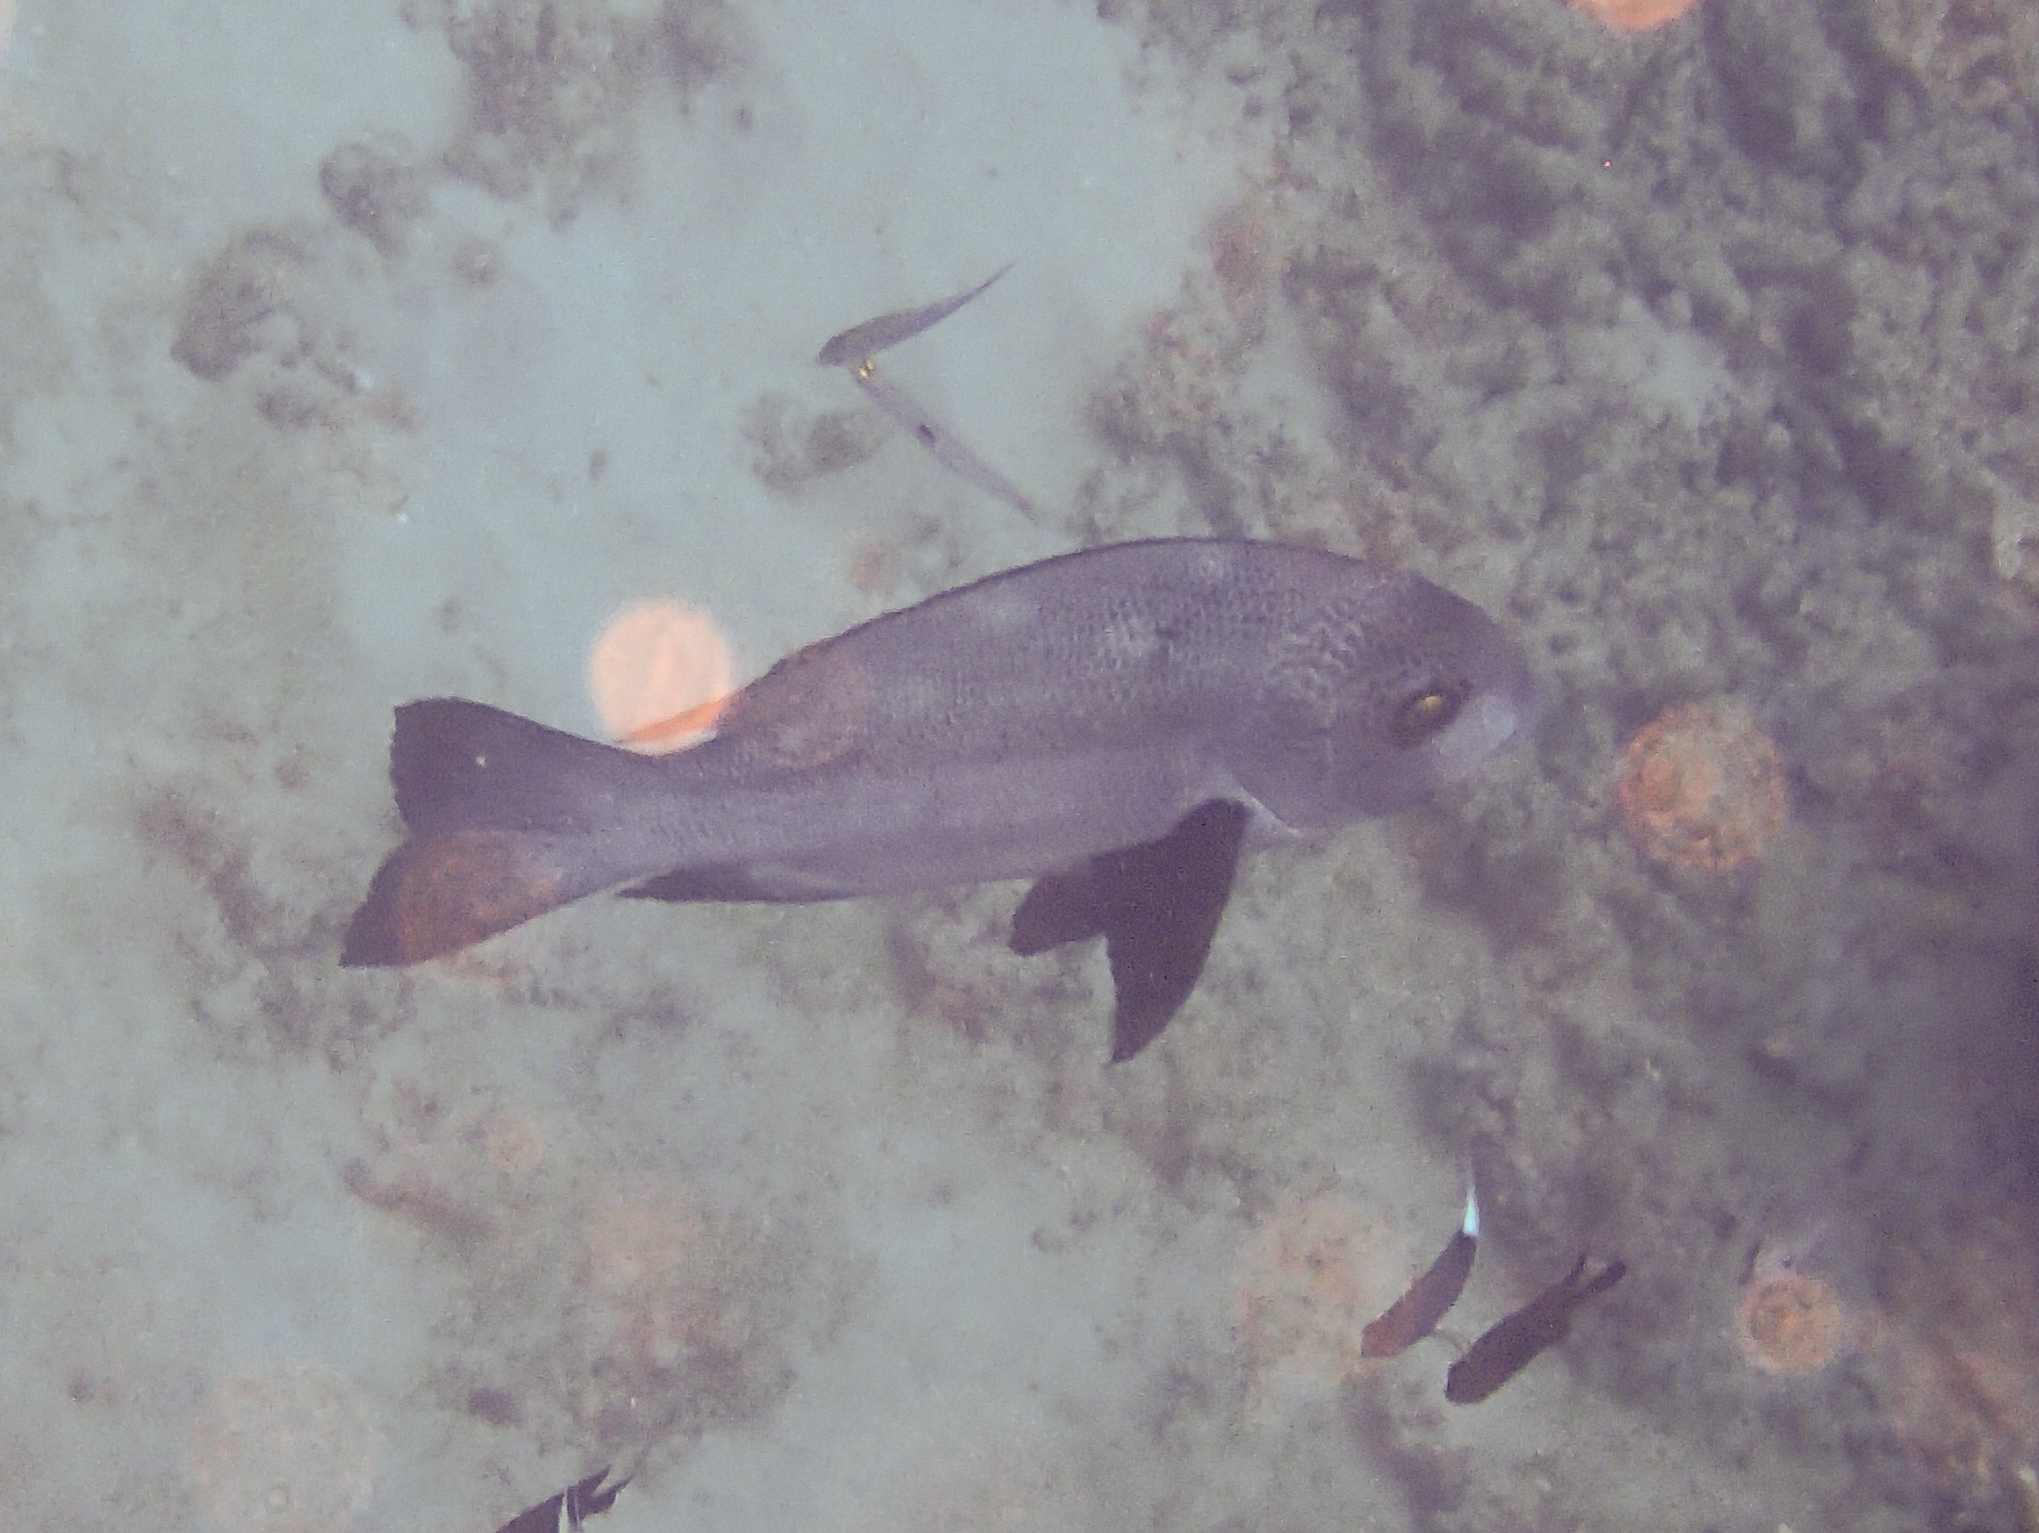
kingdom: Animalia
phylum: Chordata
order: Perciformes
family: Lutjanidae
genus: Macolor
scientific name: Macolor macularis
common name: Midnight snapper
